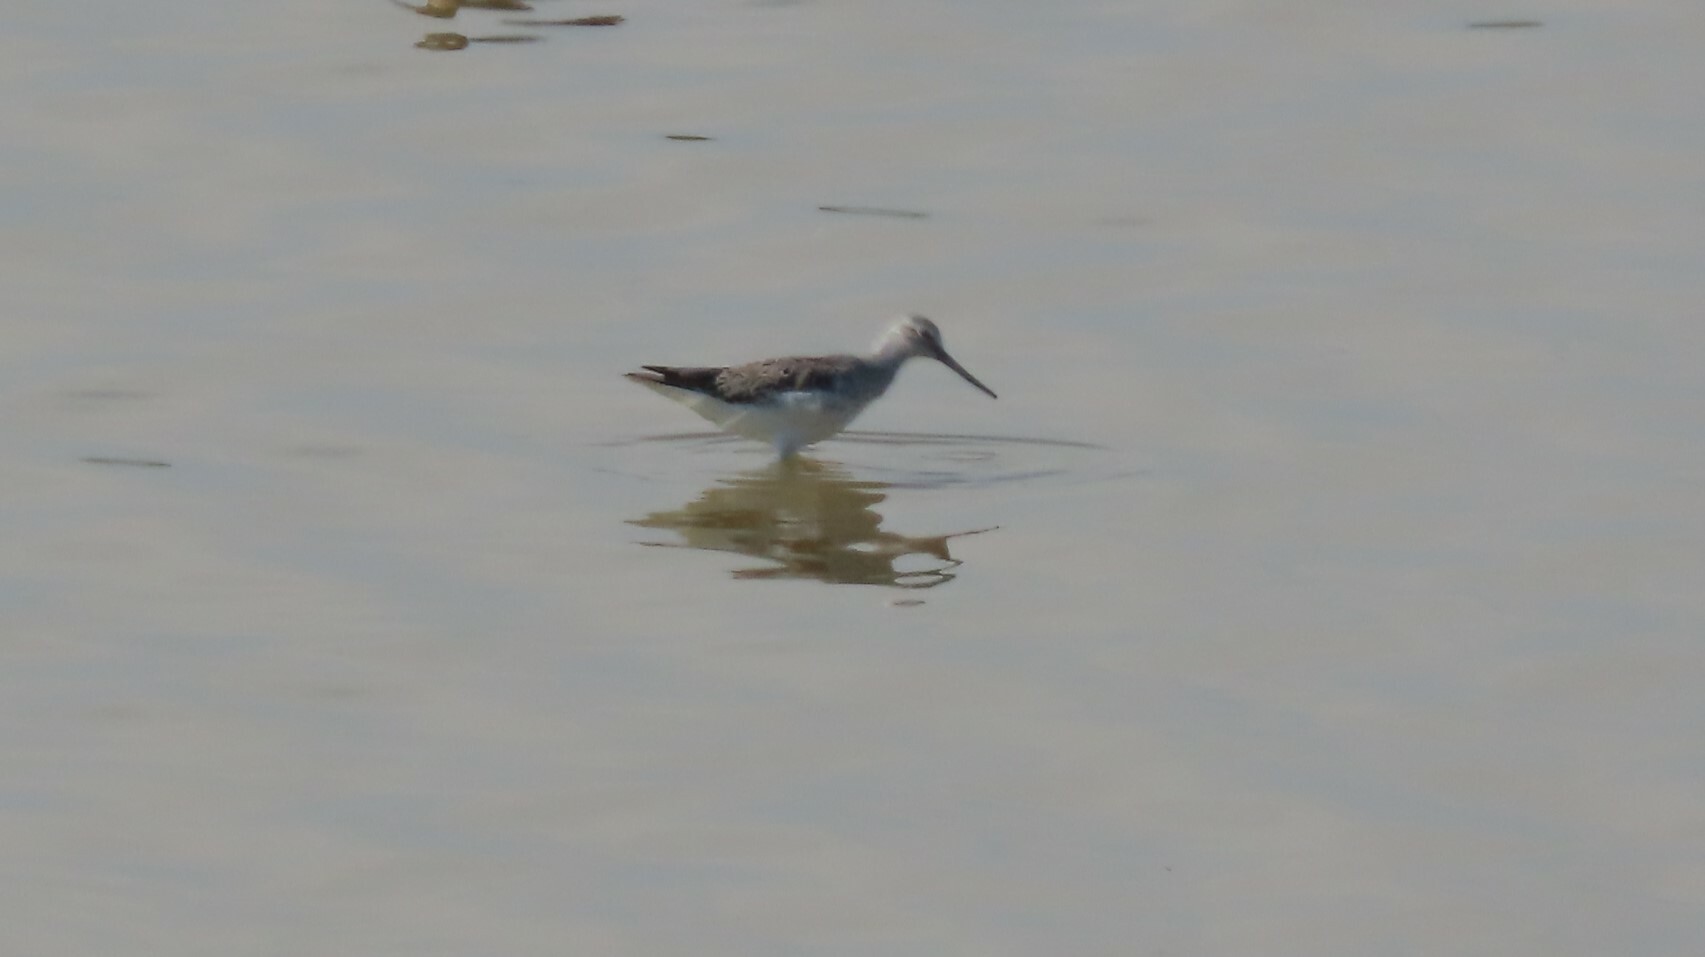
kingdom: Animalia
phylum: Chordata
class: Aves
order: Charadriiformes
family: Scolopacidae
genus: Tringa
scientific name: Tringa nebularia
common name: Common greenshank
